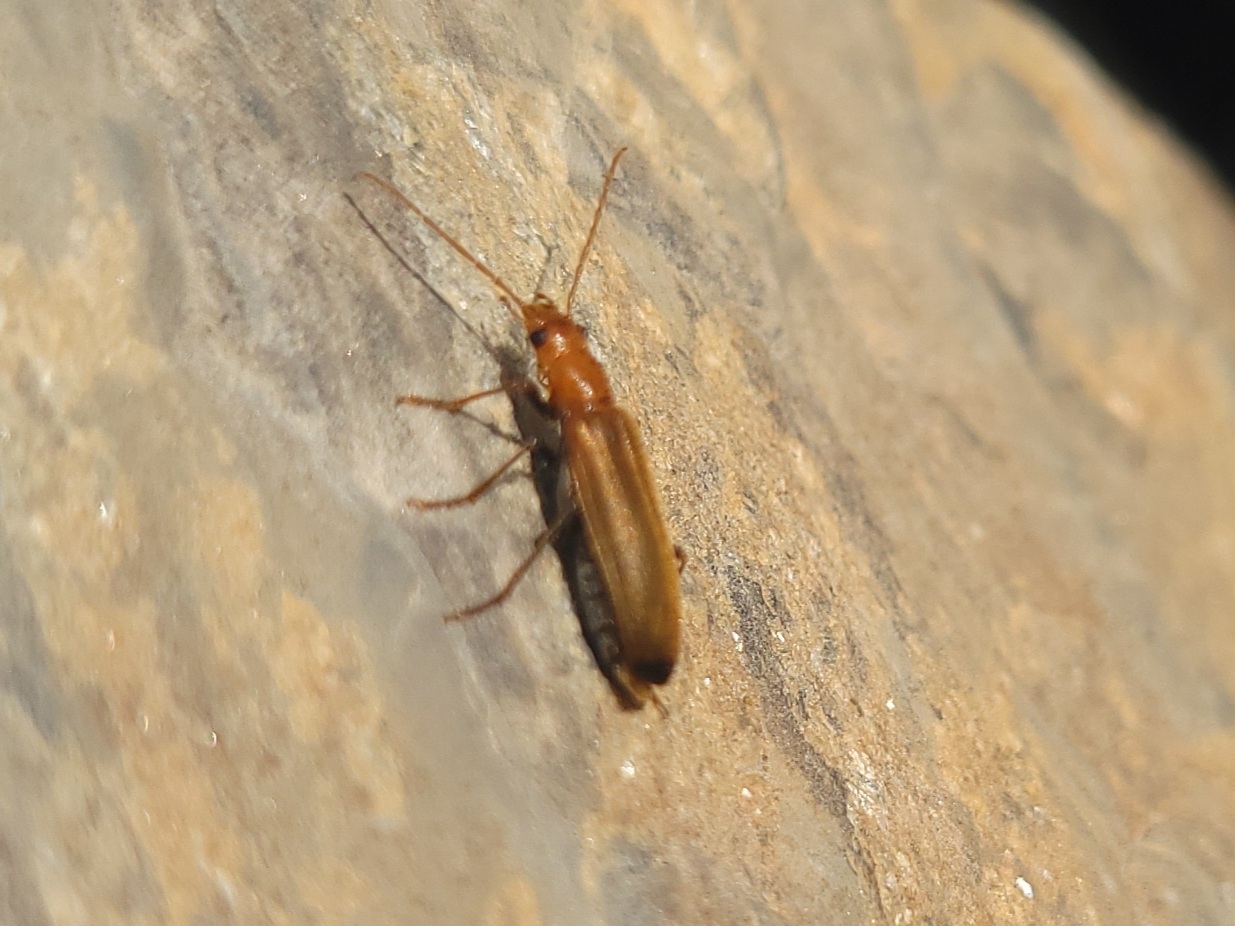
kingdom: Animalia
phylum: Arthropoda
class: Insecta
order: Coleoptera
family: Oedemeridae
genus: Nacerdes
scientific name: Nacerdes melanura
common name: Wharf borer
